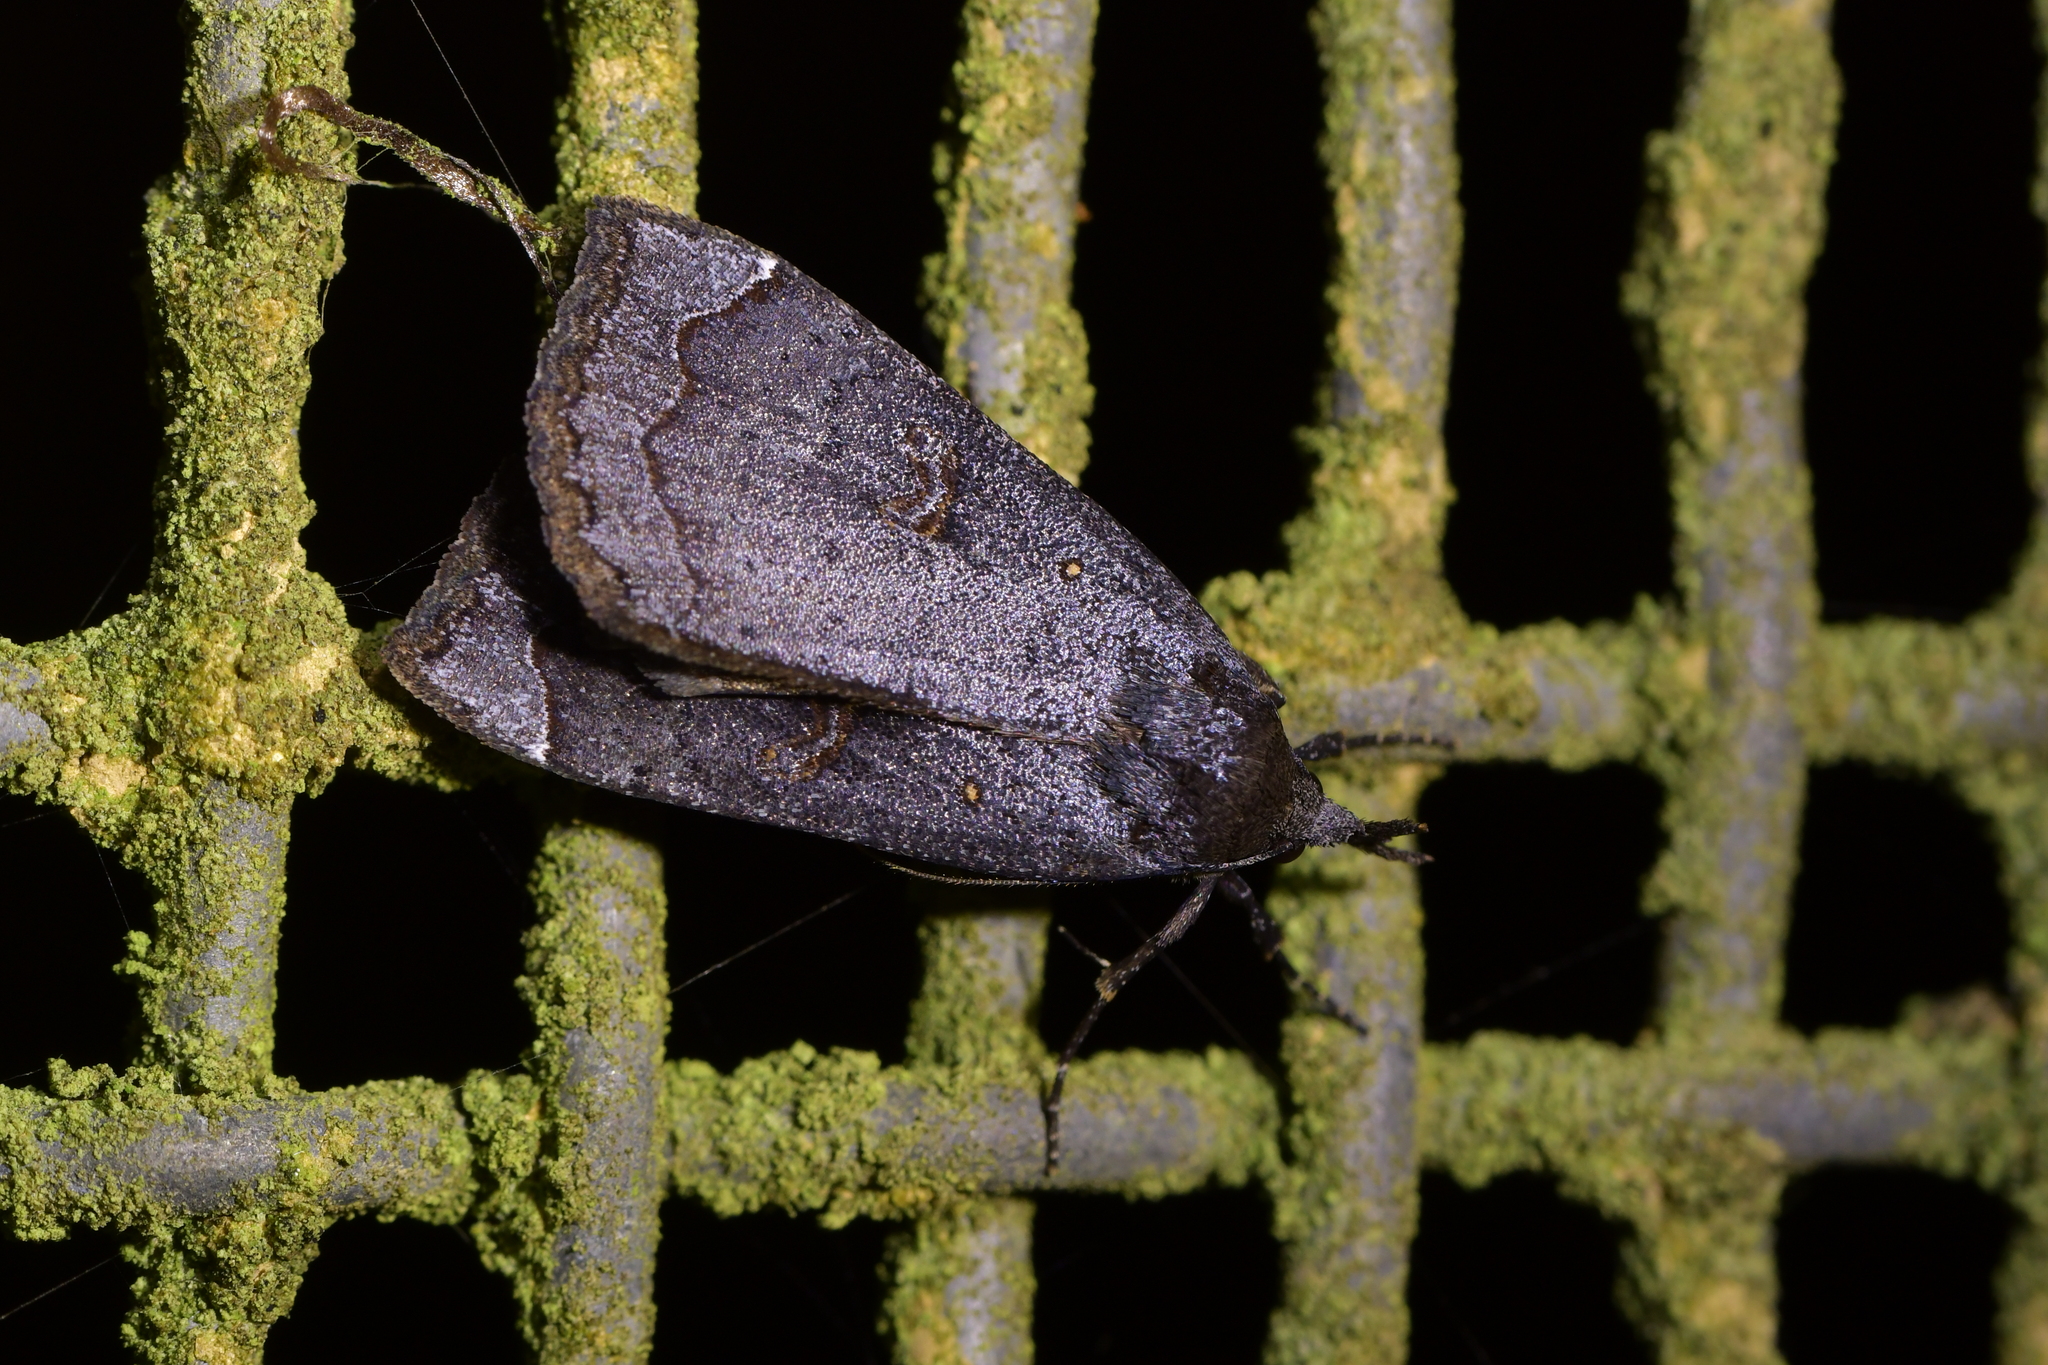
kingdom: Animalia
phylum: Arthropoda
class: Insecta
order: Lepidoptera
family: Erebidae
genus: Rhapsa
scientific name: Rhapsa scotosialis
